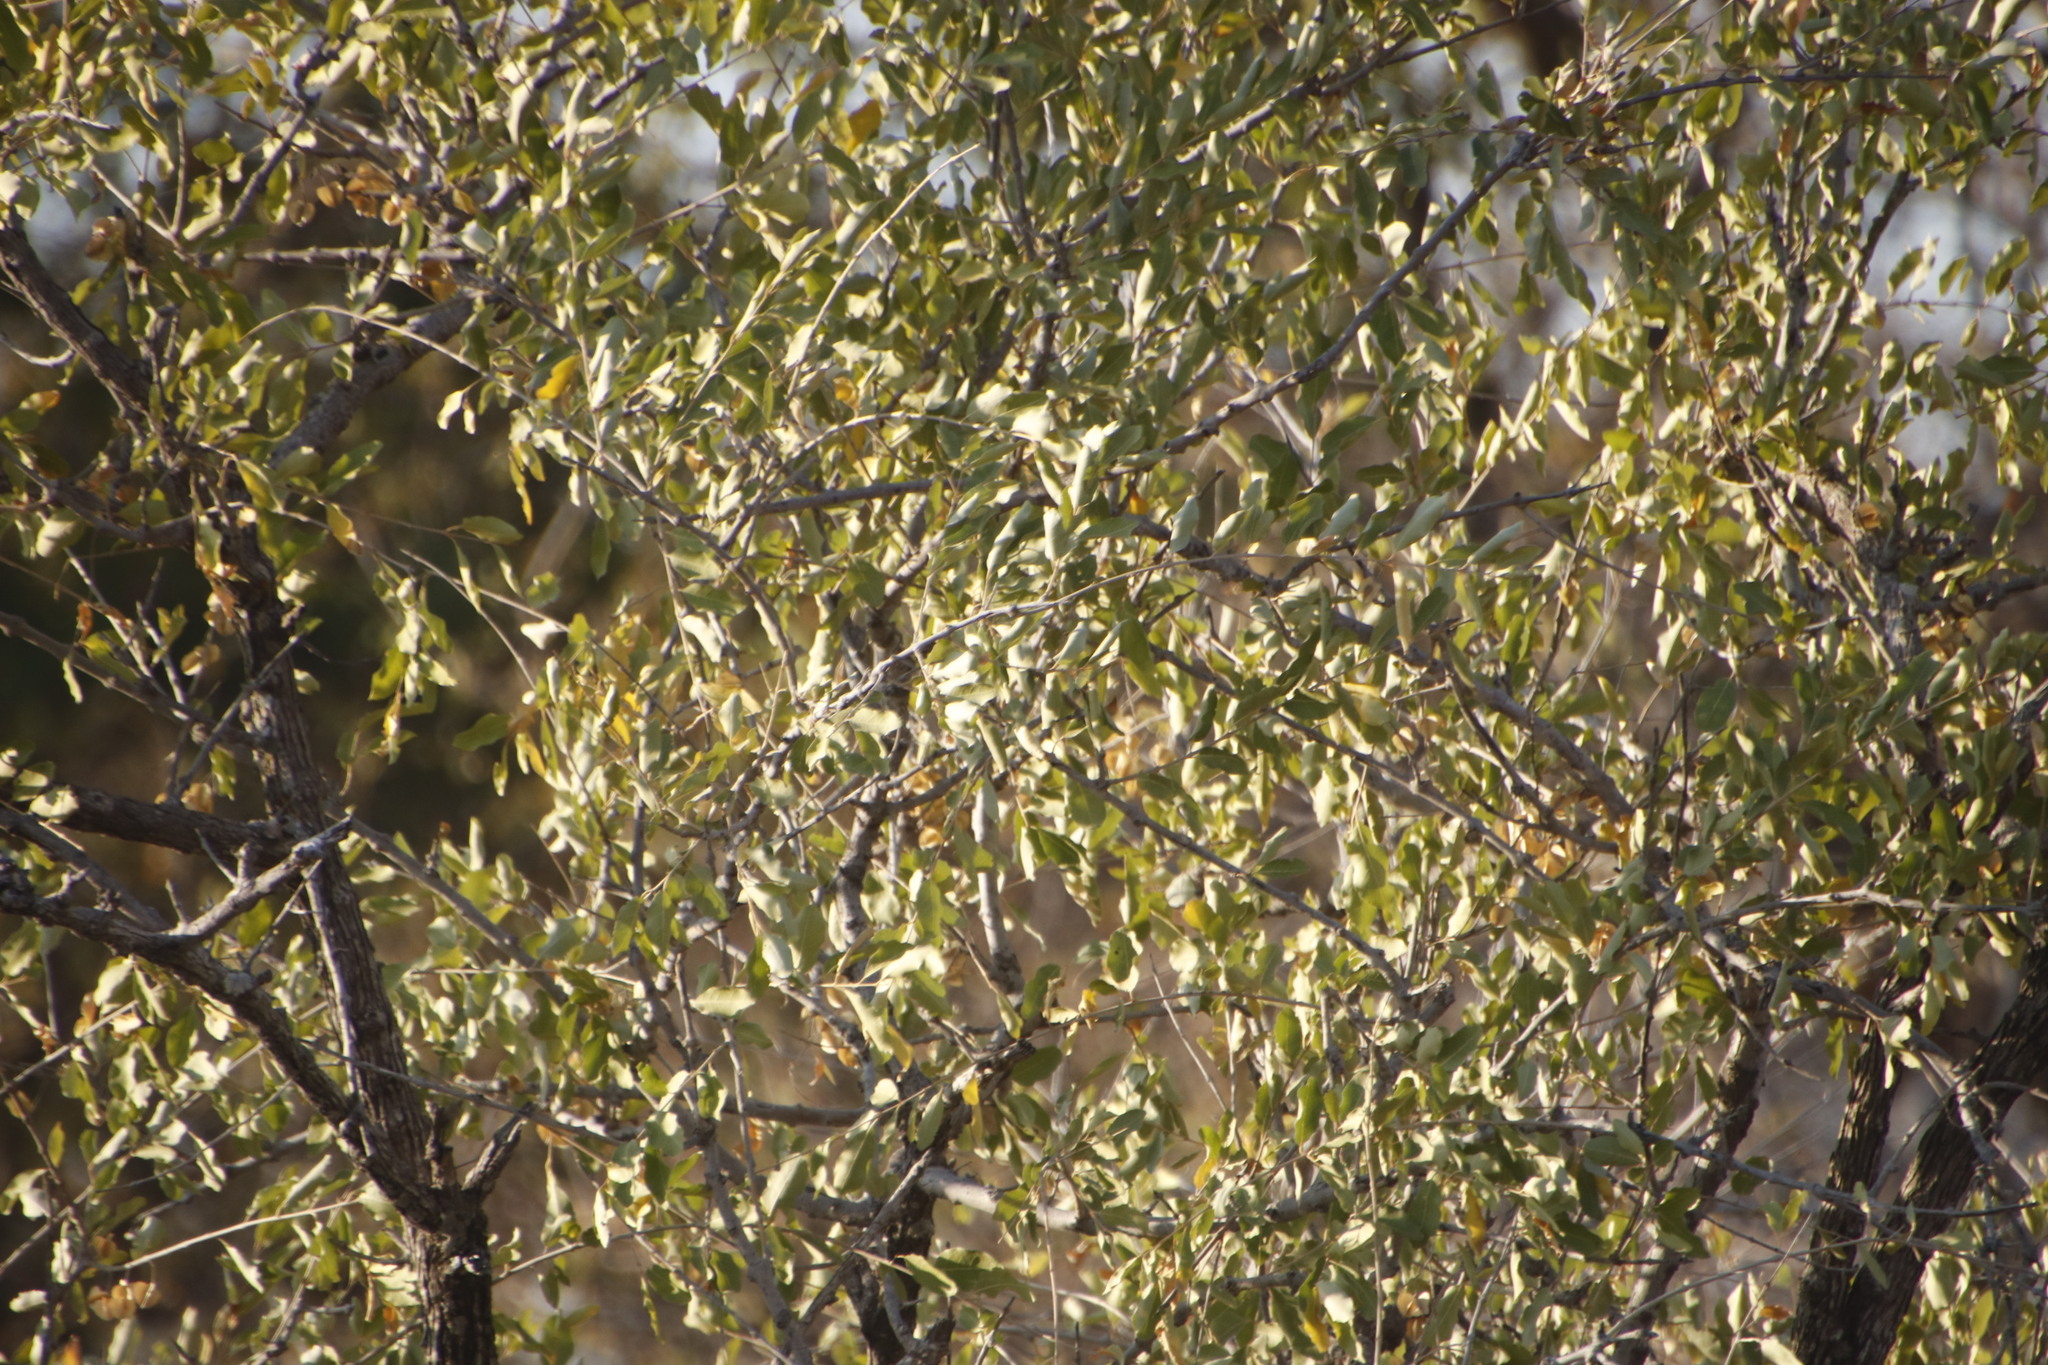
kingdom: Plantae
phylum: Tracheophyta
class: Magnoliopsida
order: Myrtales
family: Combretaceae
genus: Combretum
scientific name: Combretum imberbe
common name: Leadwood
